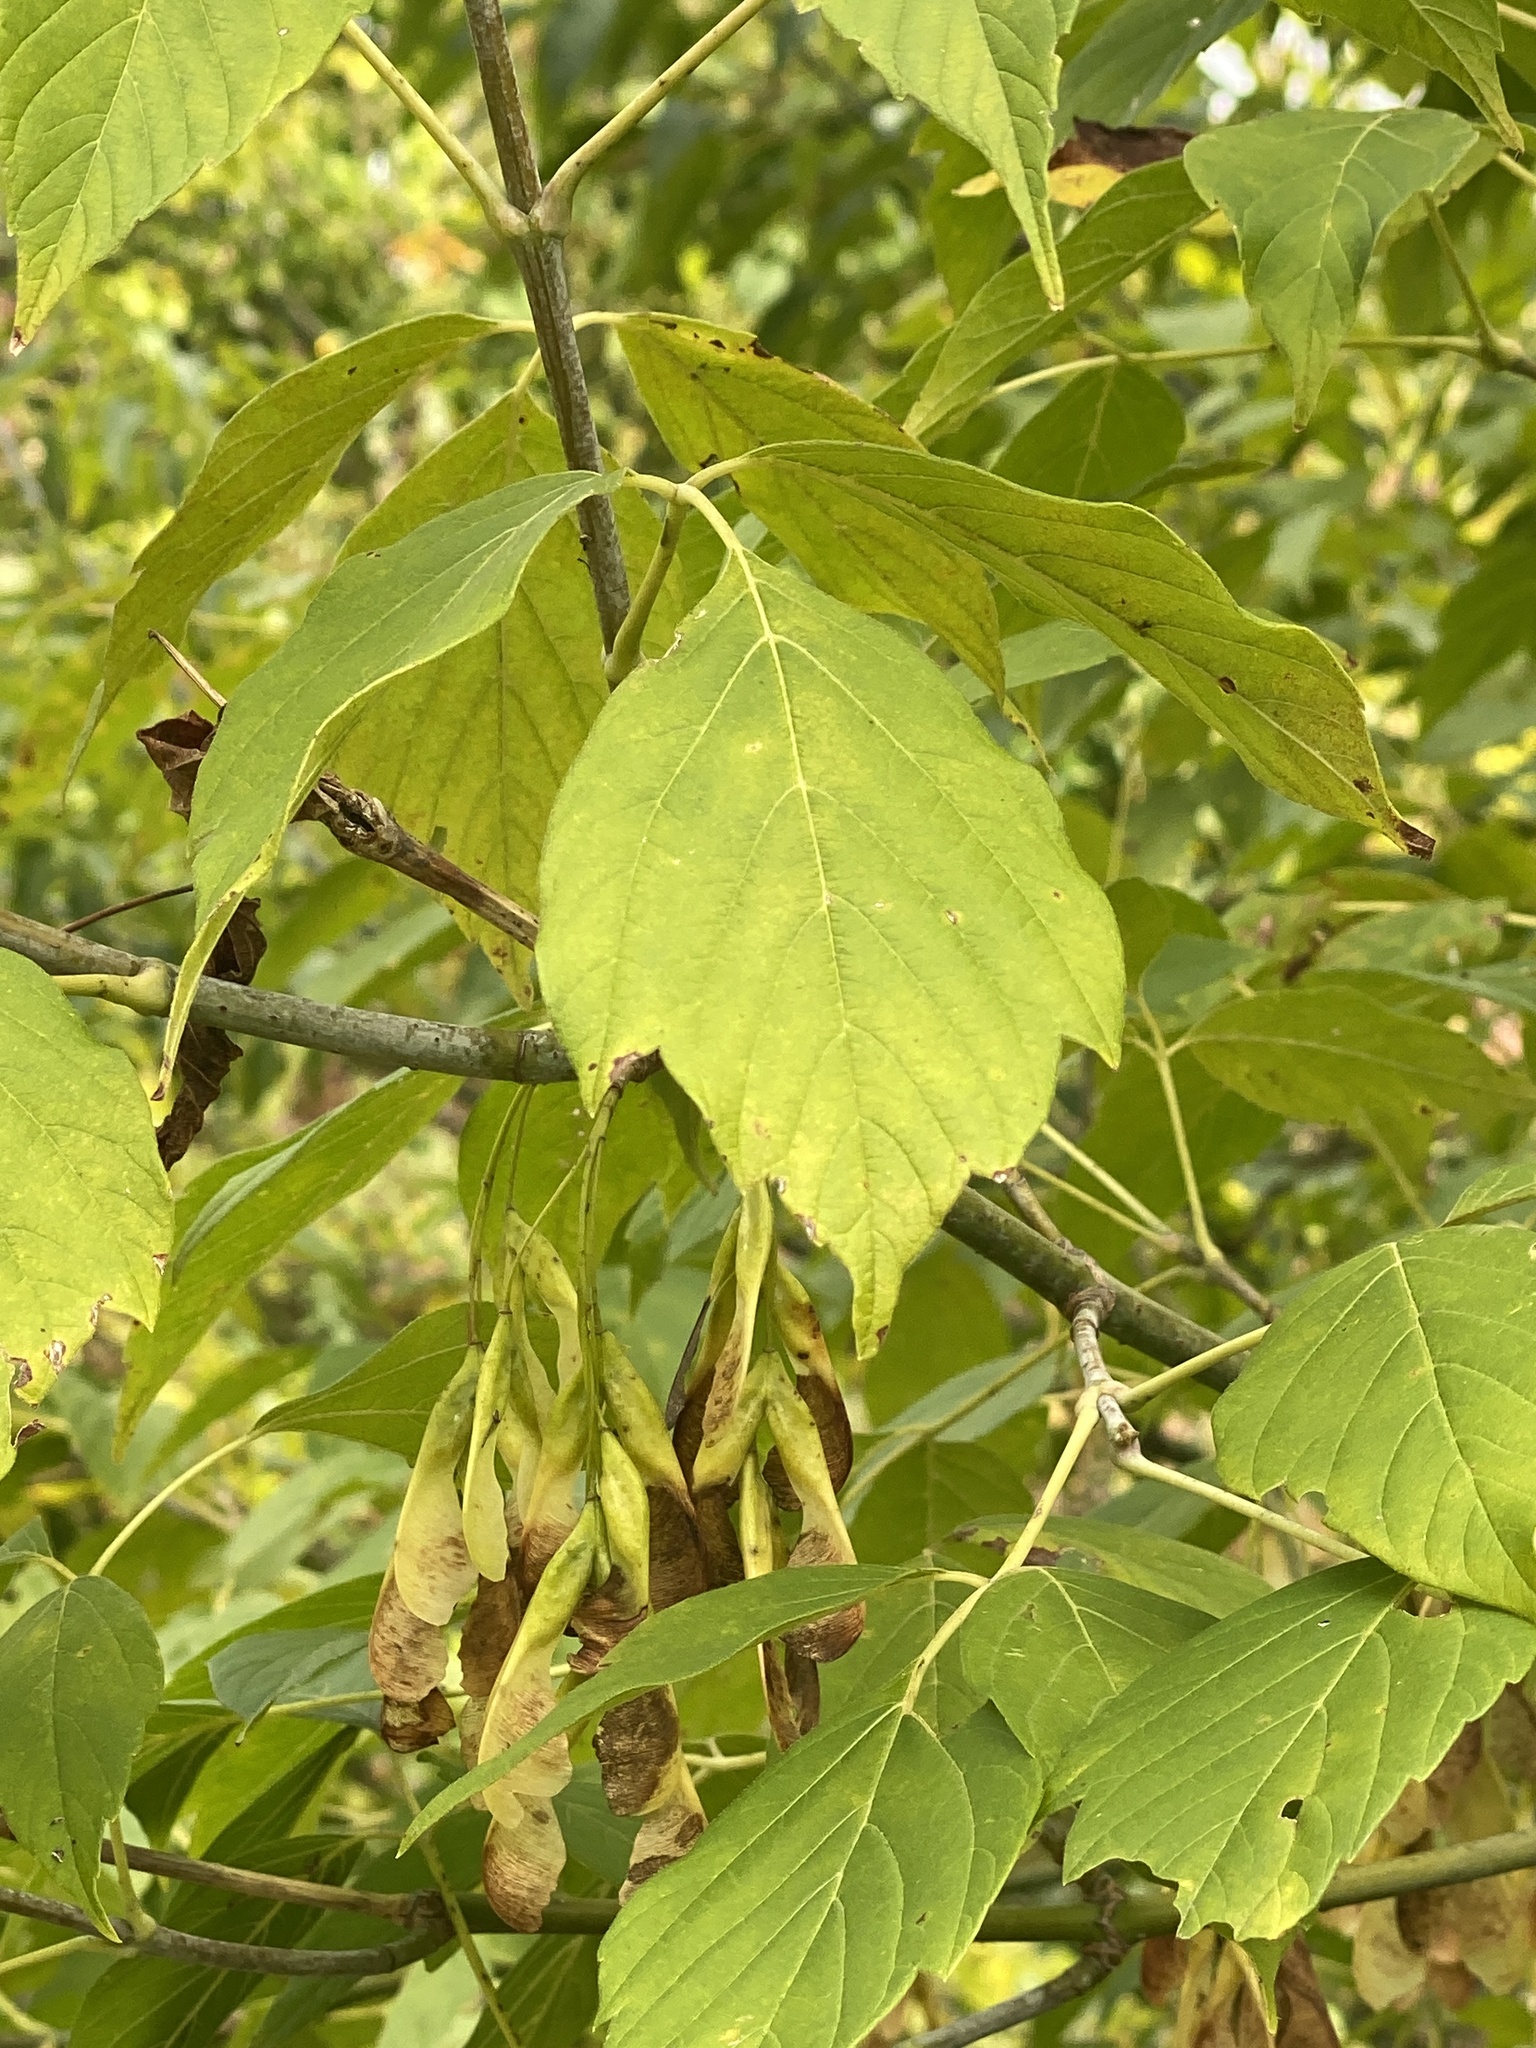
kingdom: Plantae
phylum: Tracheophyta
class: Magnoliopsida
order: Sapindales
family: Sapindaceae
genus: Acer
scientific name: Acer negundo
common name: Ashleaf maple
